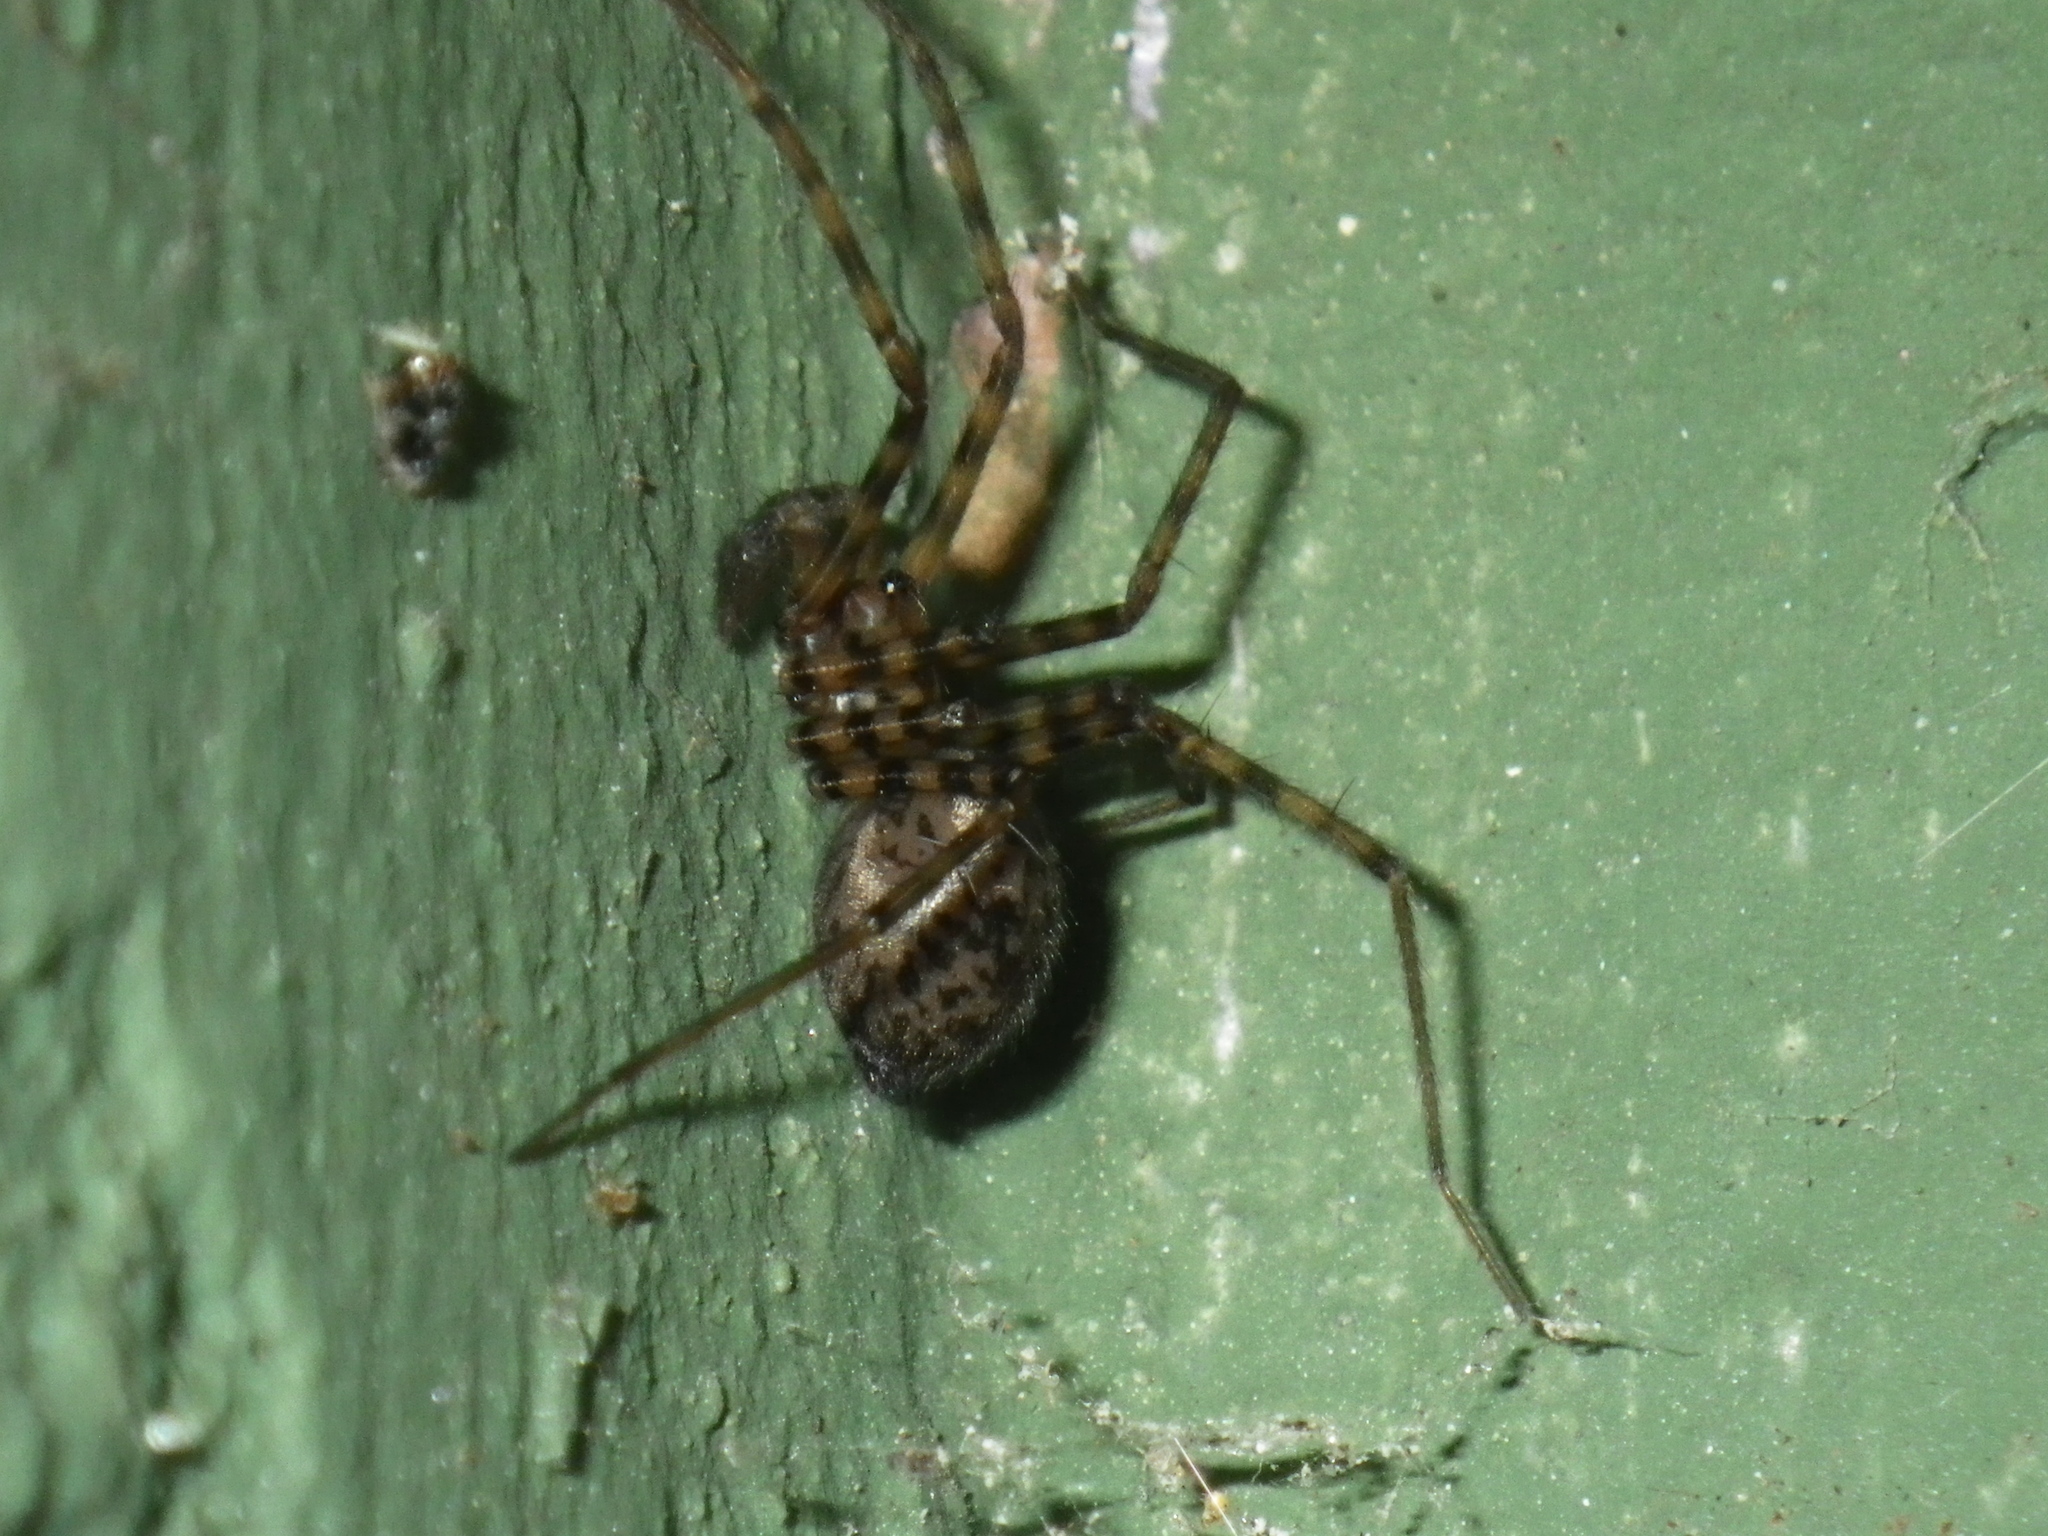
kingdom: Animalia
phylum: Arthropoda
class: Arachnida
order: Araneae
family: Cybaeidae
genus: Calymmaria
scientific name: Calymmaria
